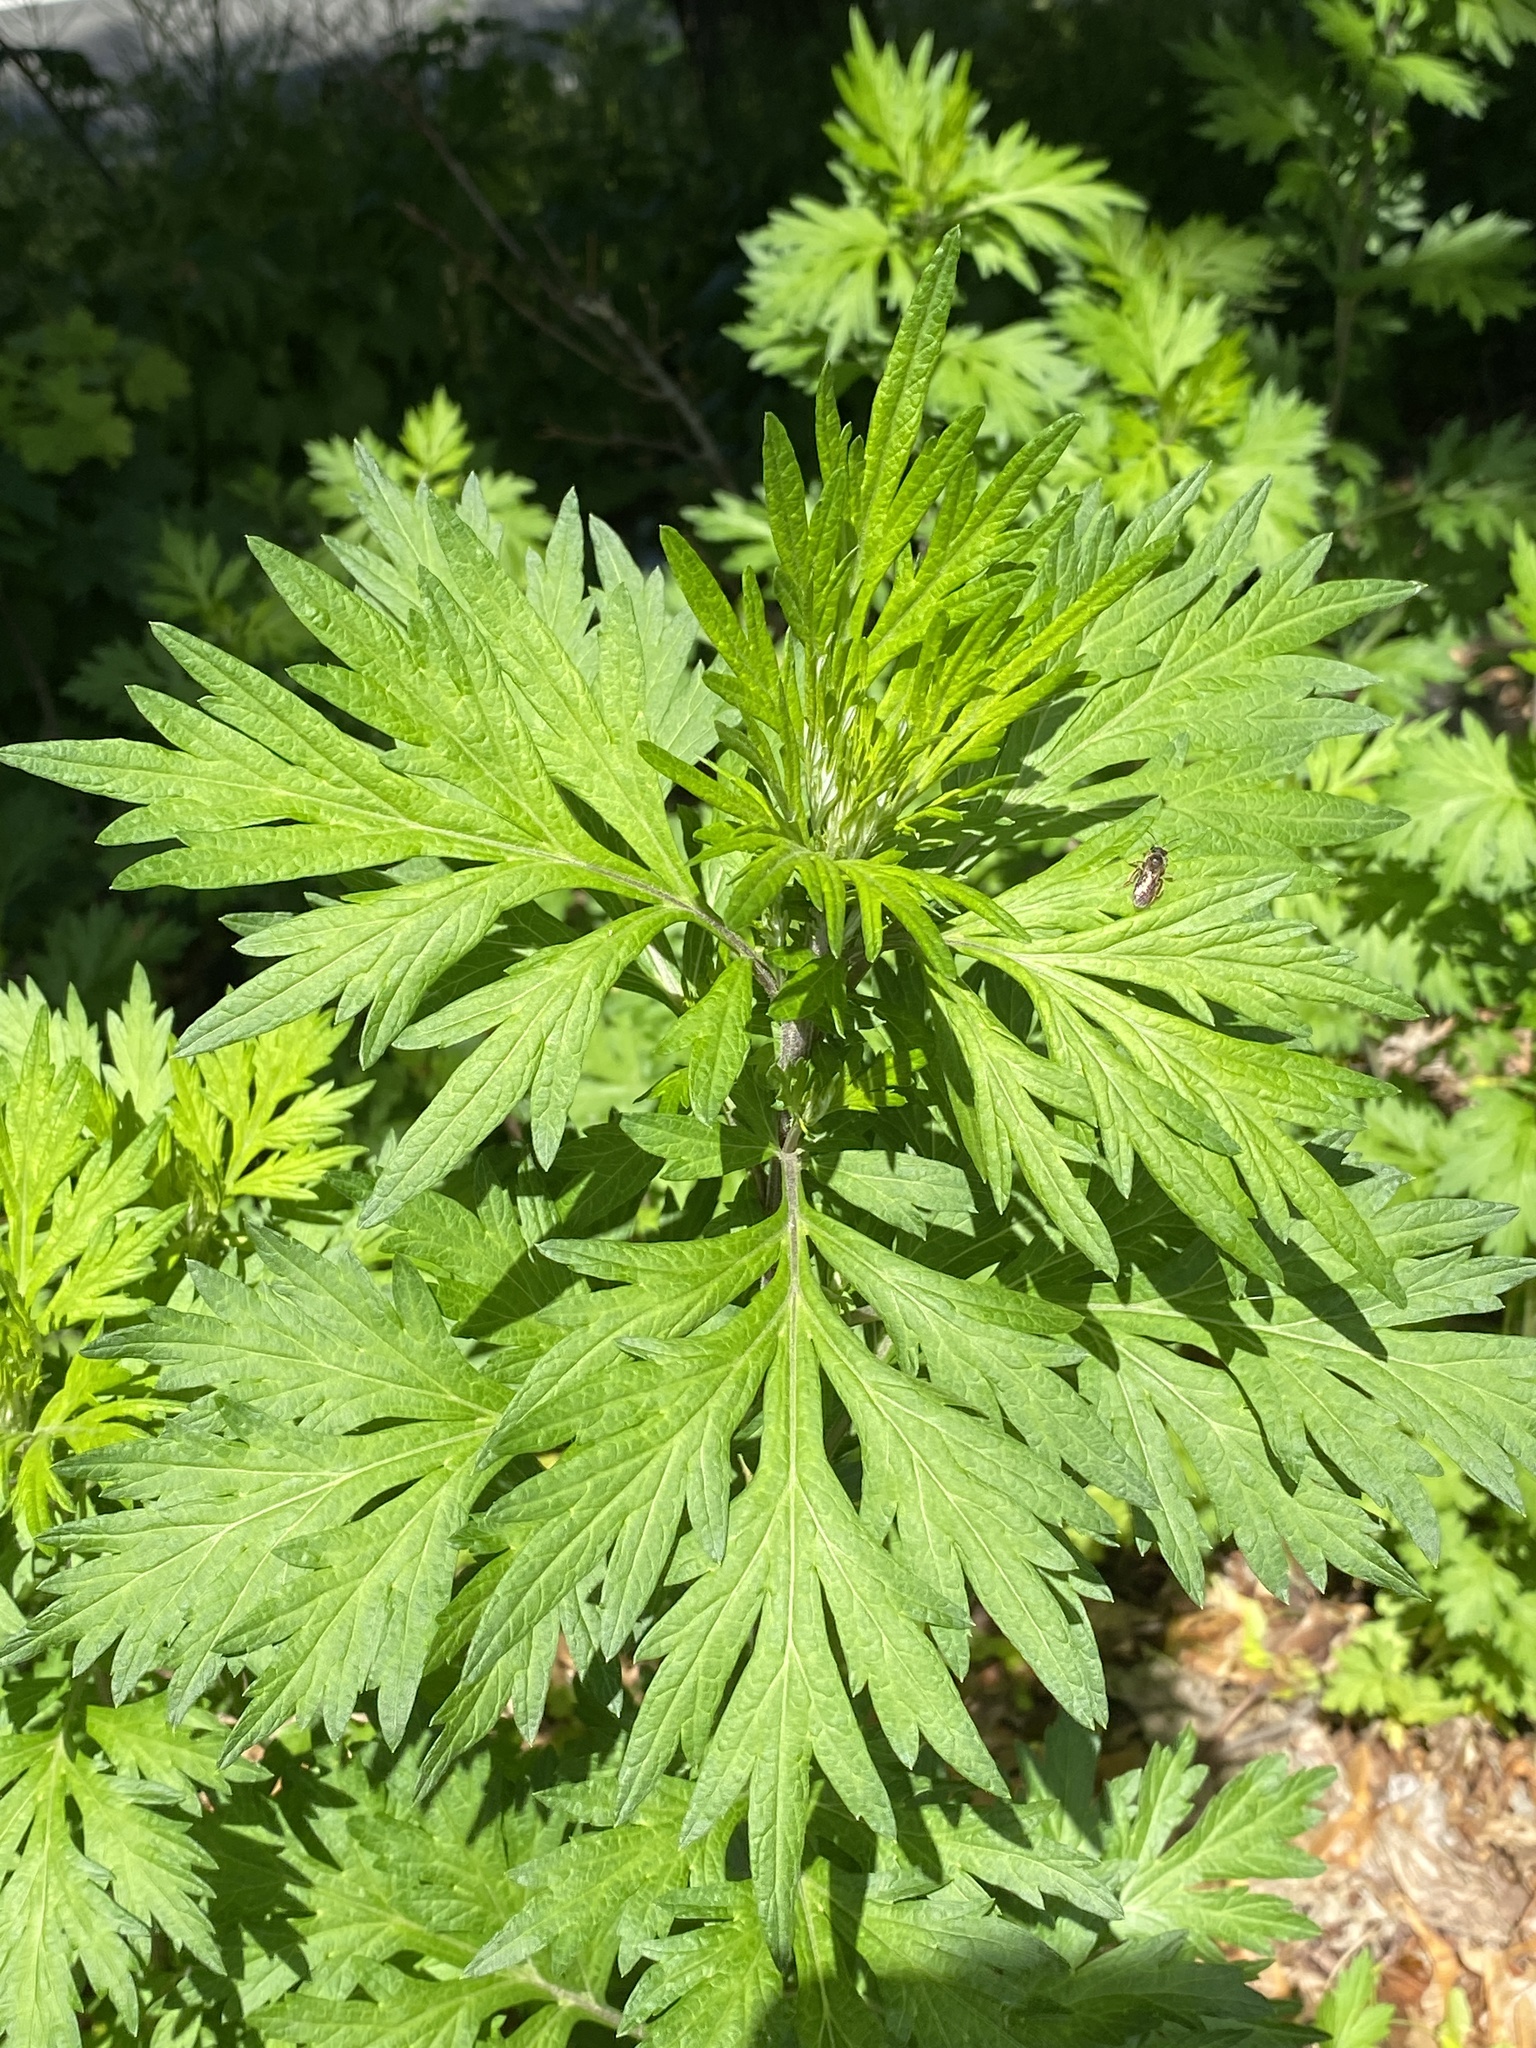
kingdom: Plantae
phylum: Tracheophyta
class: Magnoliopsida
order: Asterales
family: Asteraceae
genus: Artemisia
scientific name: Artemisia vulgaris
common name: Mugwort
